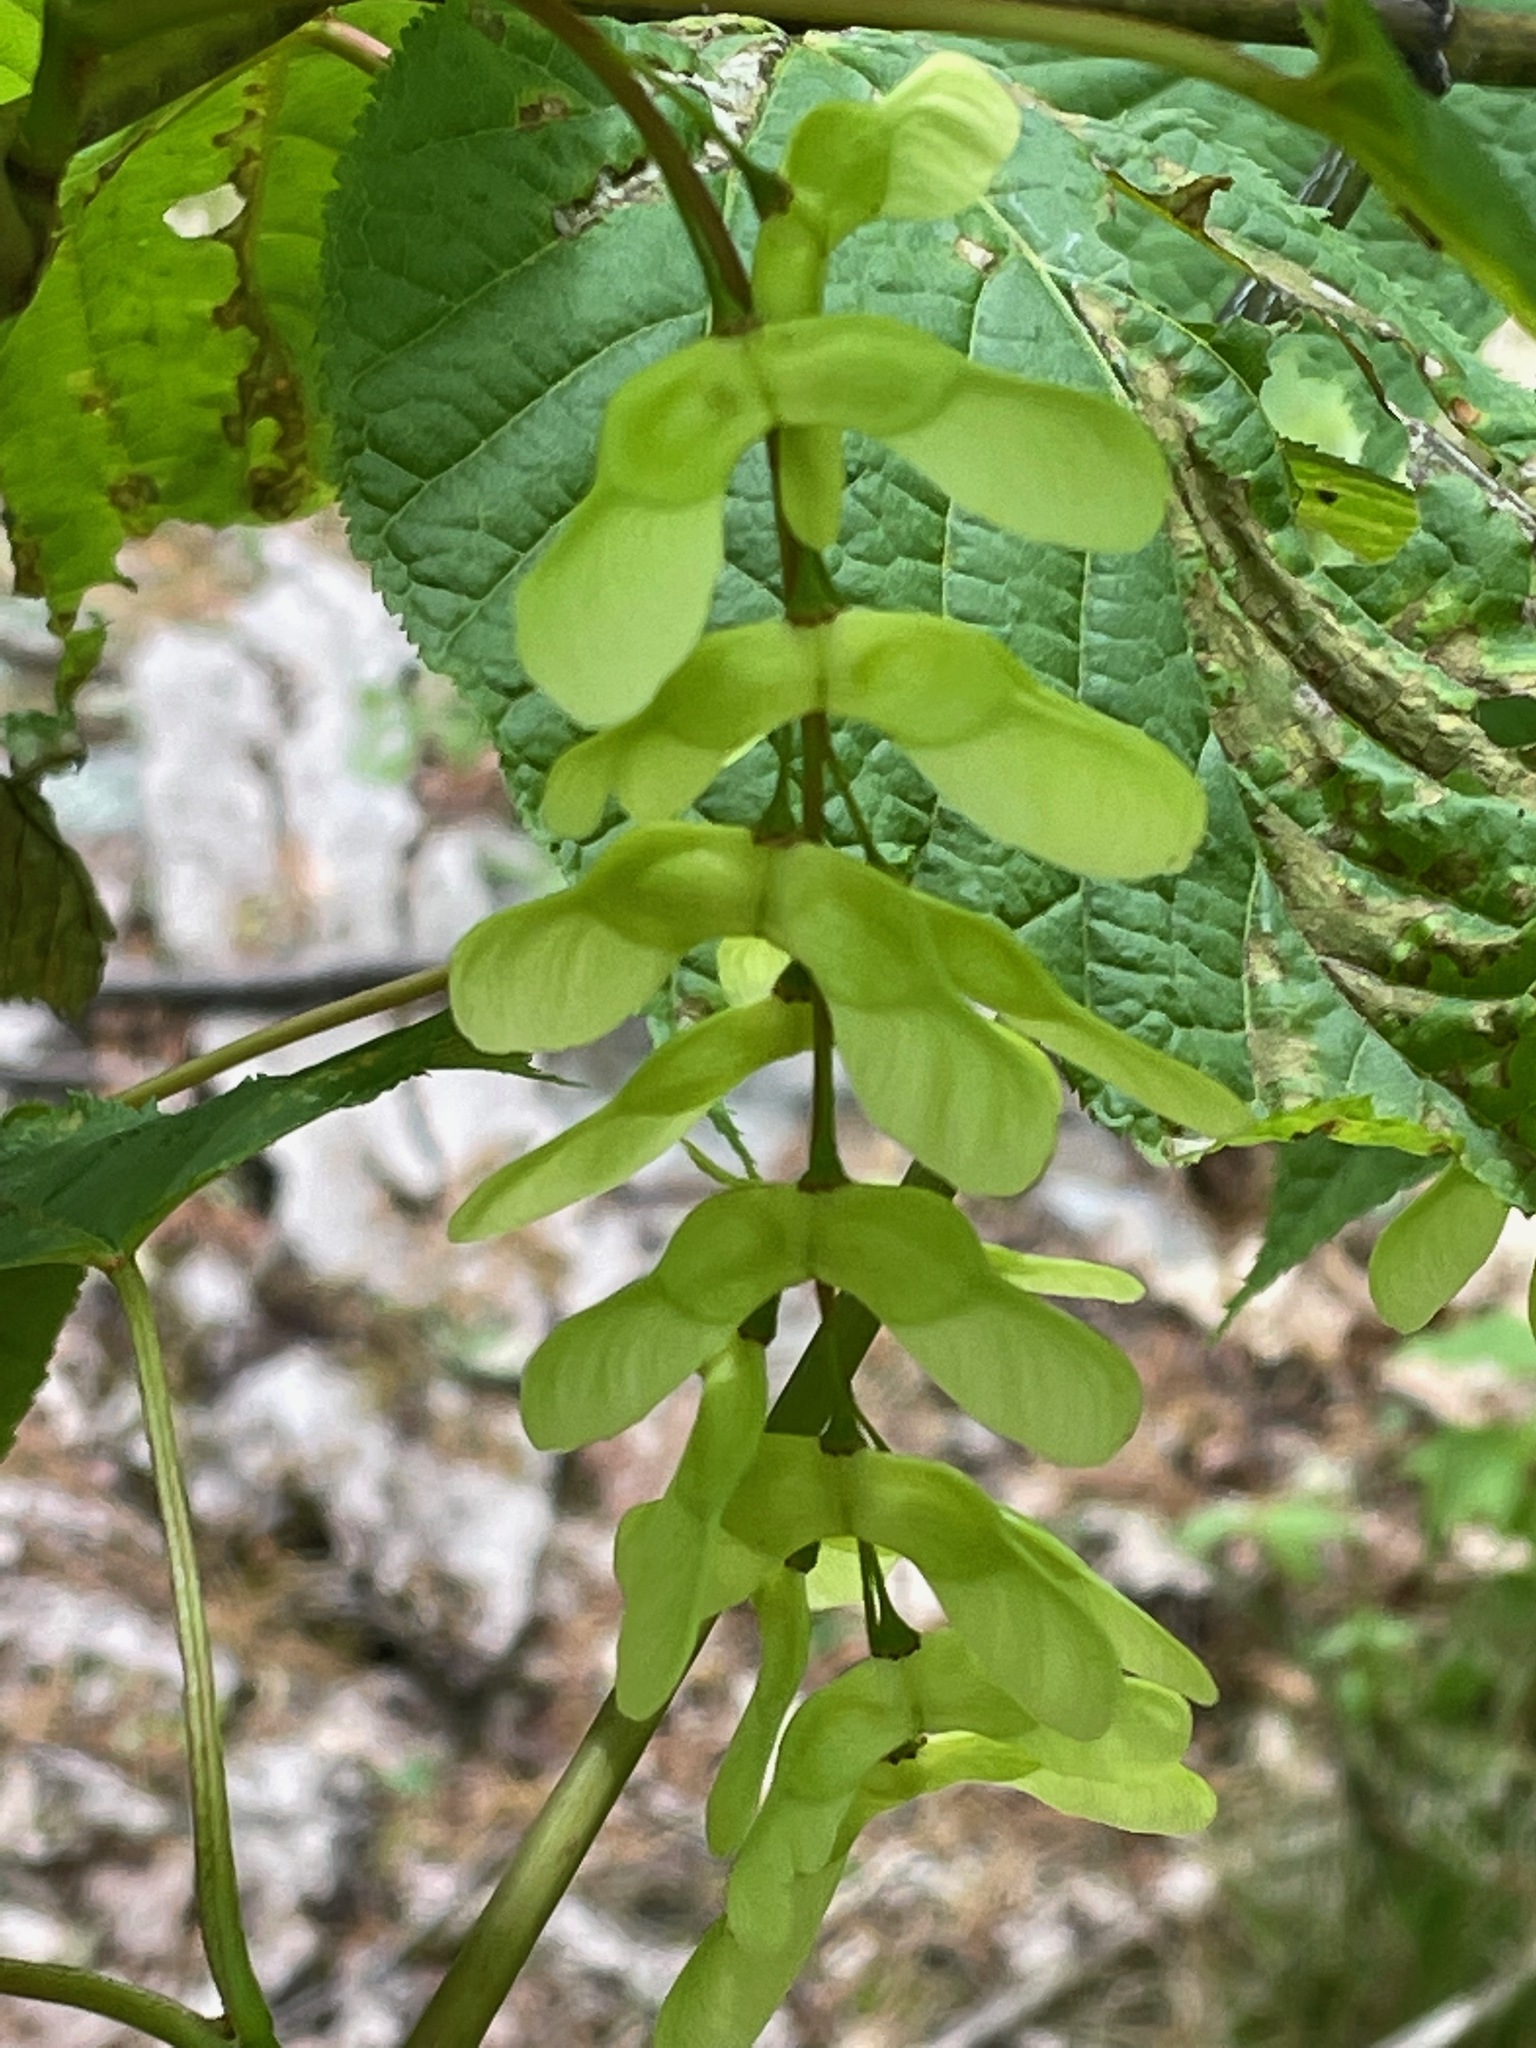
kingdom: Plantae
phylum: Tracheophyta
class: Magnoliopsida
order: Sapindales
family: Sapindaceae
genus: Acer
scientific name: Acer pensylvanicum
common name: Moosewood
